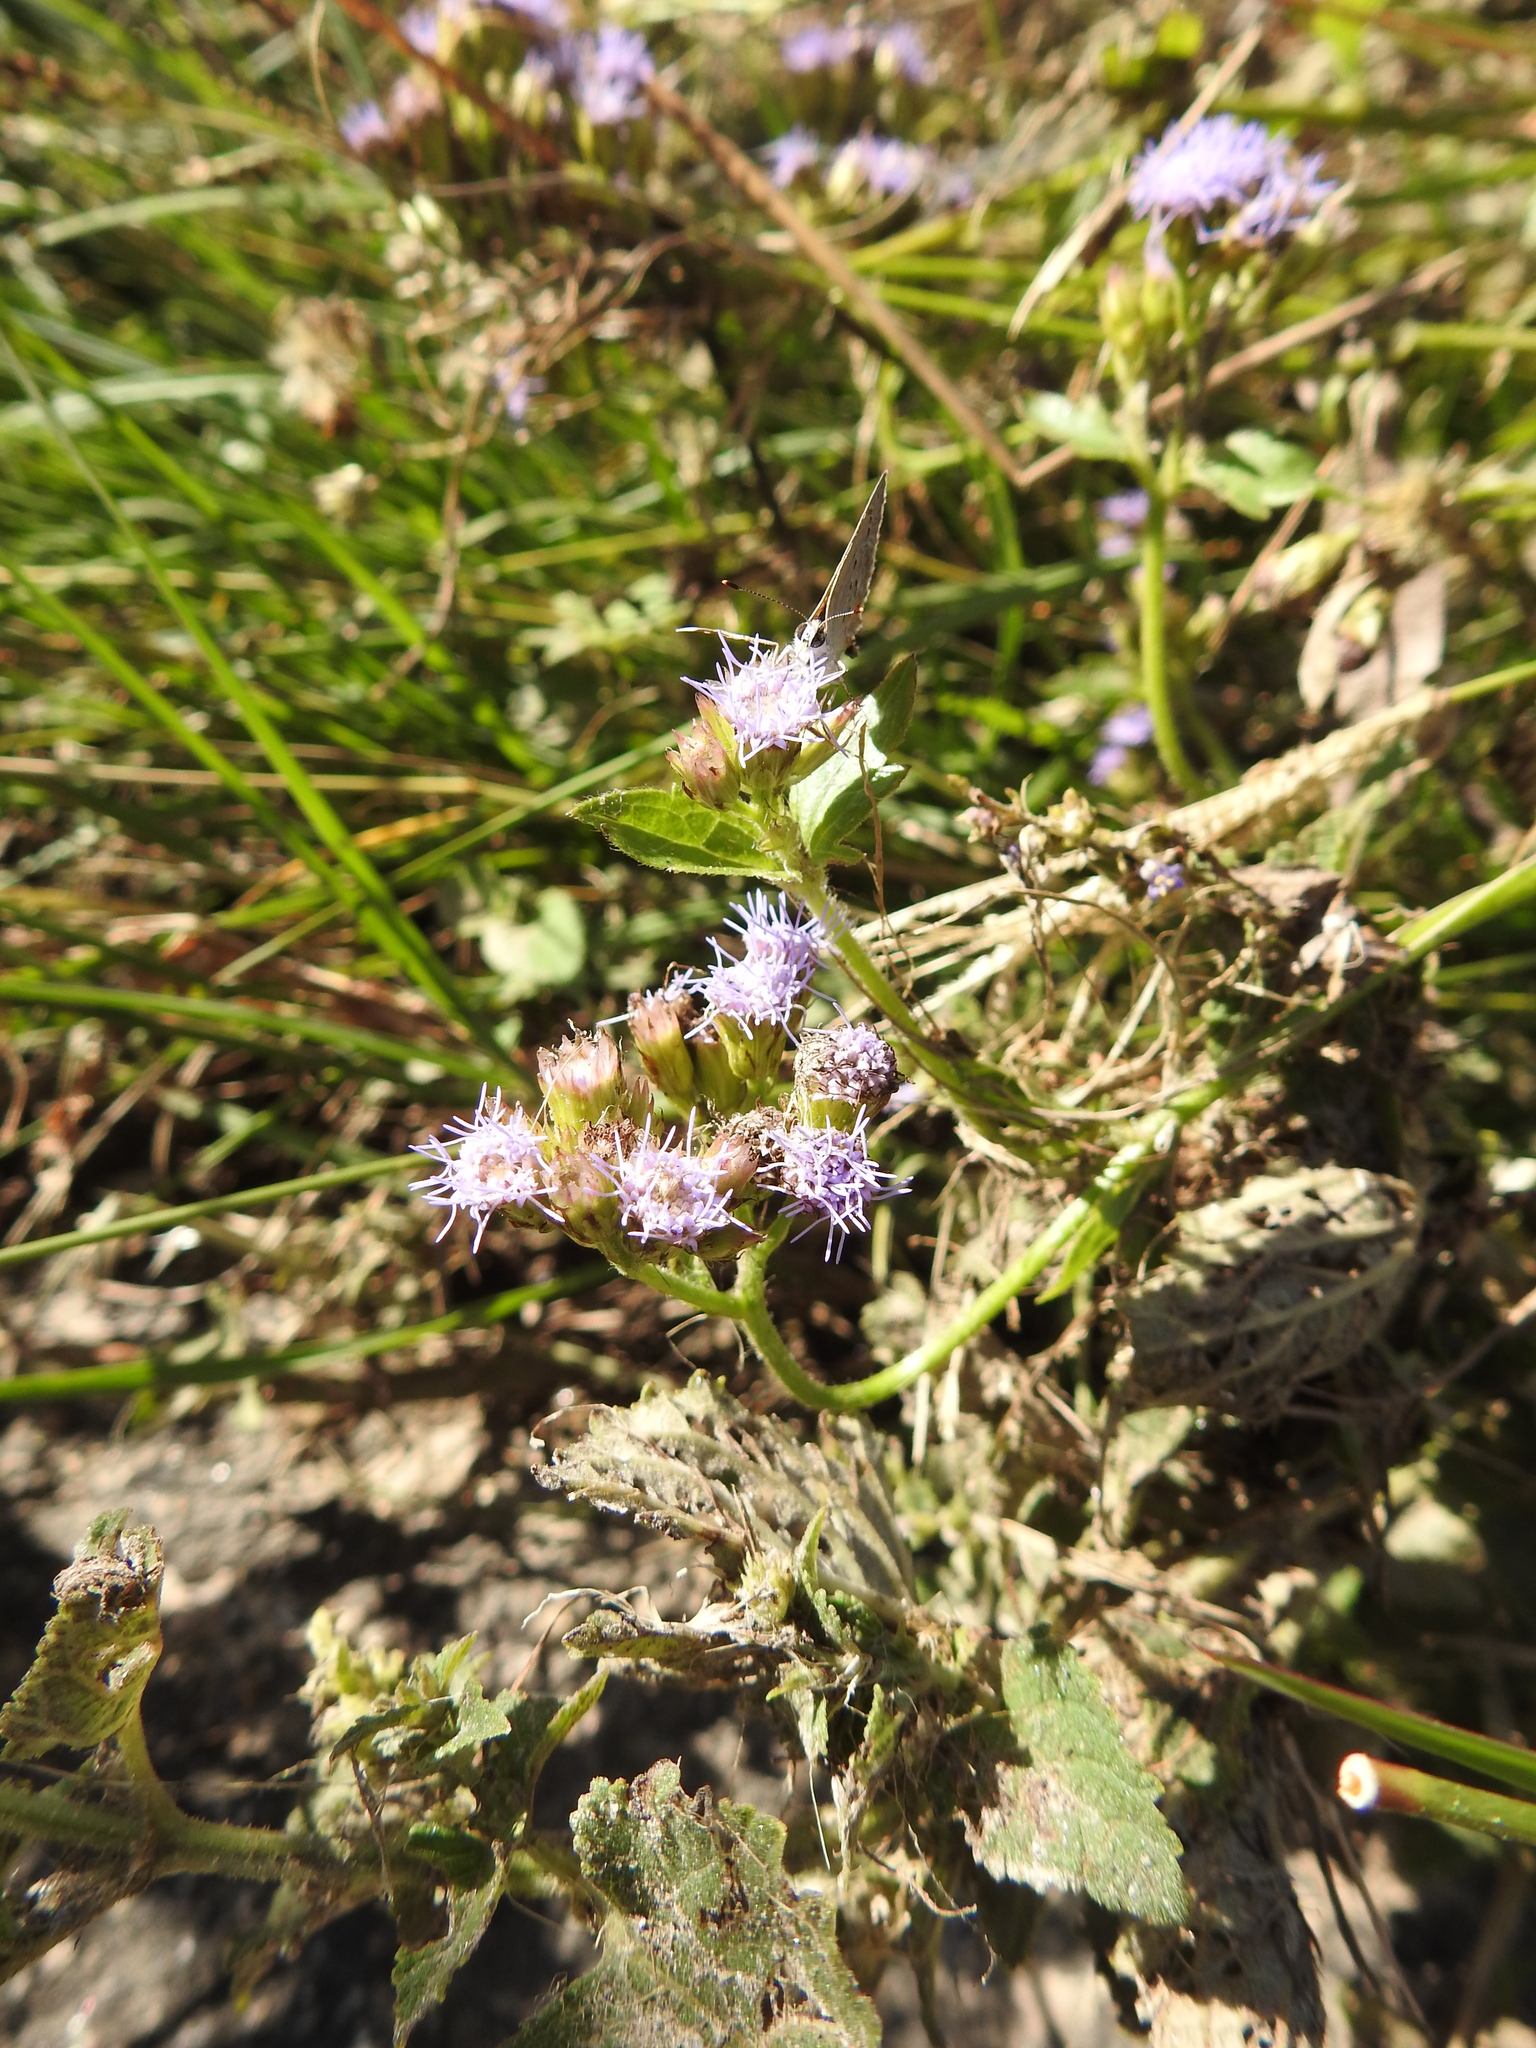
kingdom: Plantae
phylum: Tracheophyta
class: Magnoliopsida
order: Asterales
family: Asteraceae
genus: Praxelis
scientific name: Praxelis clematidea
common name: Praxelis
